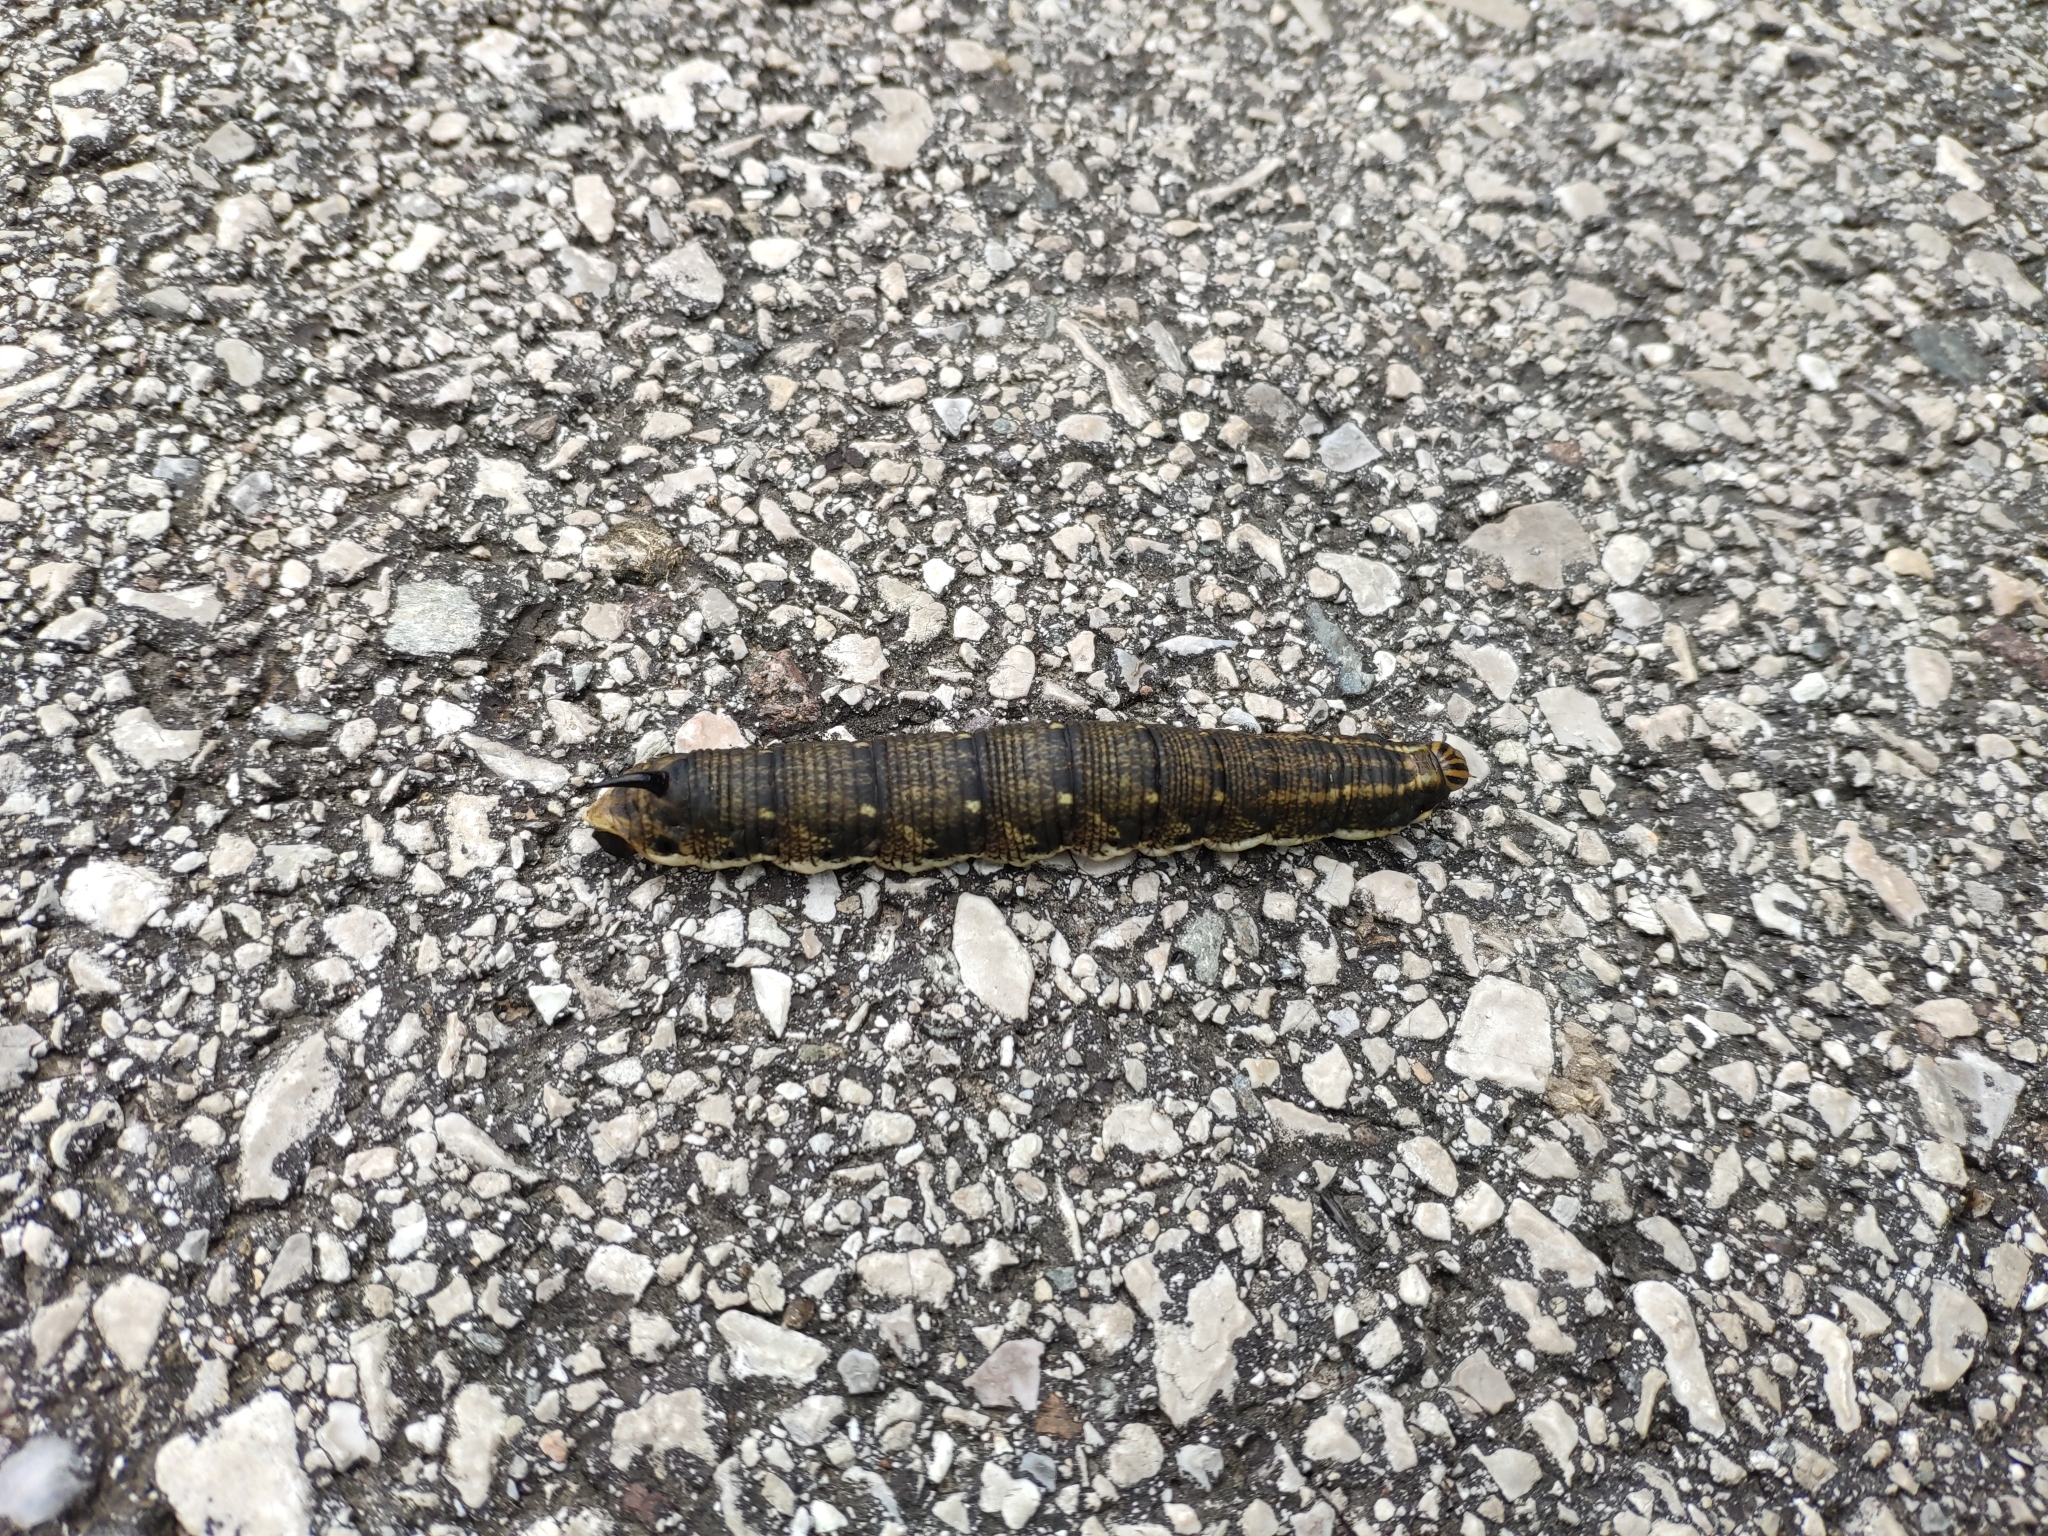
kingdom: Animalia
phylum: Arthropoda
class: Insecta
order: Lepidoptera
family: Sphingidae
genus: Agrius
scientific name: Agrius convolvuli
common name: Convolvulus hawkmoth
